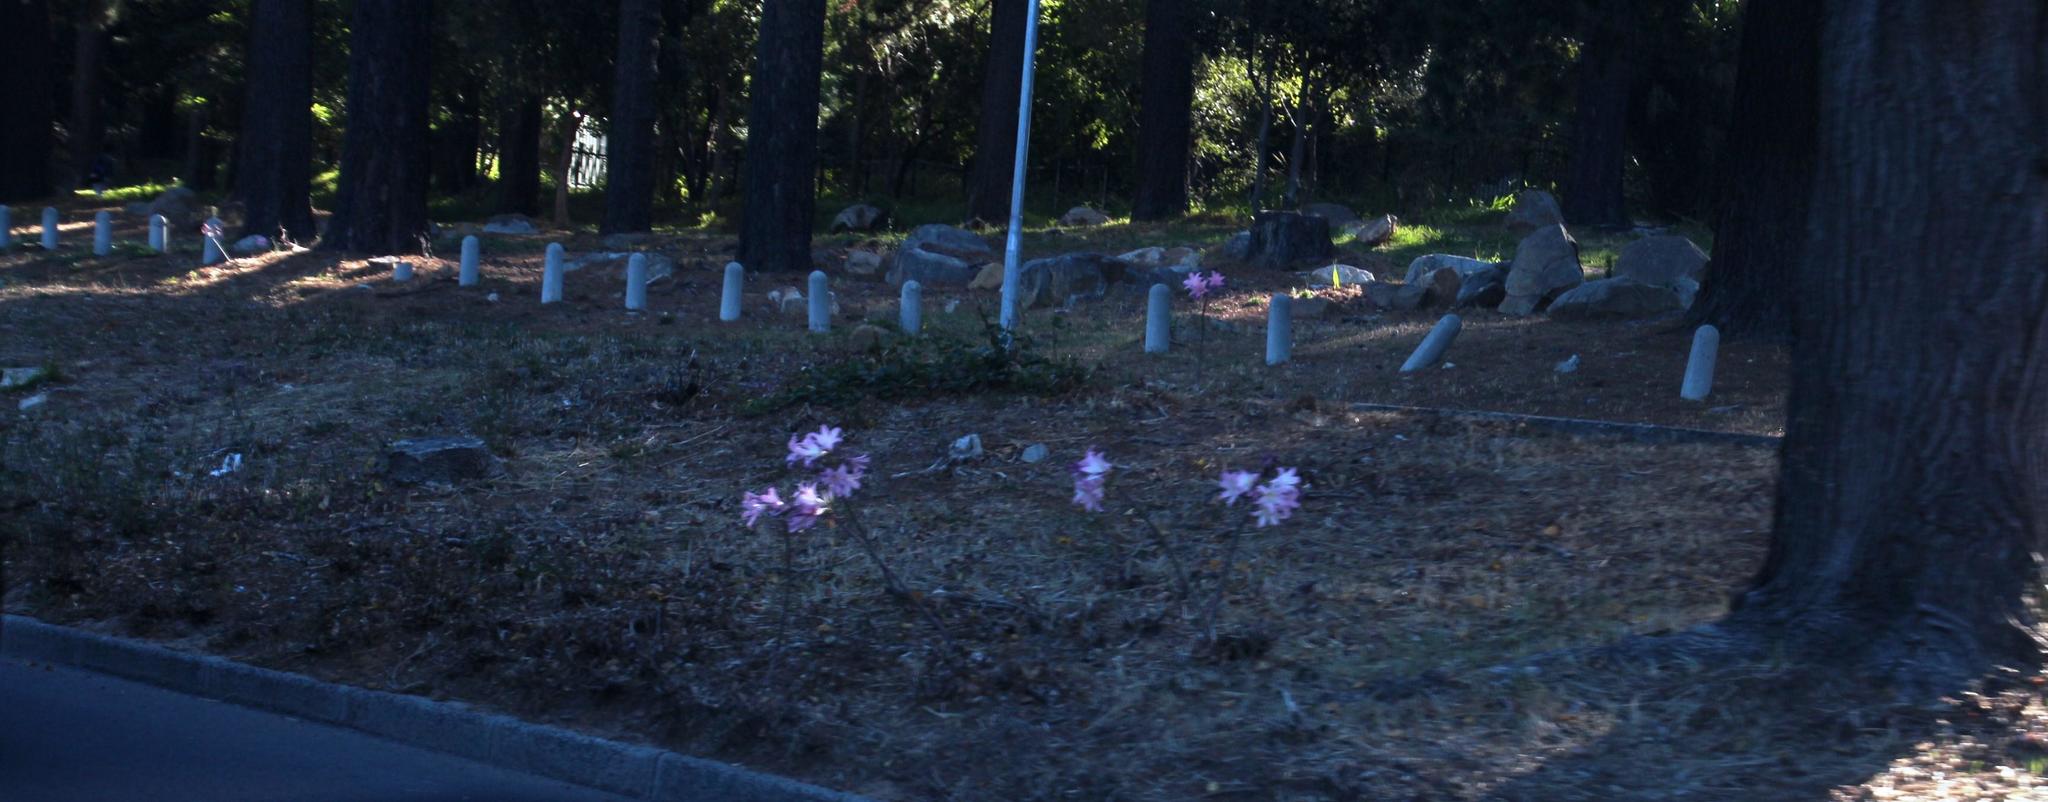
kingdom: Plantae
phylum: Tracheophyta
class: Liliopsida
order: Asparagales
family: Amaryllidaceae
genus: Amaryllis
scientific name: Amaryllis belladonna
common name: Jersey lily
